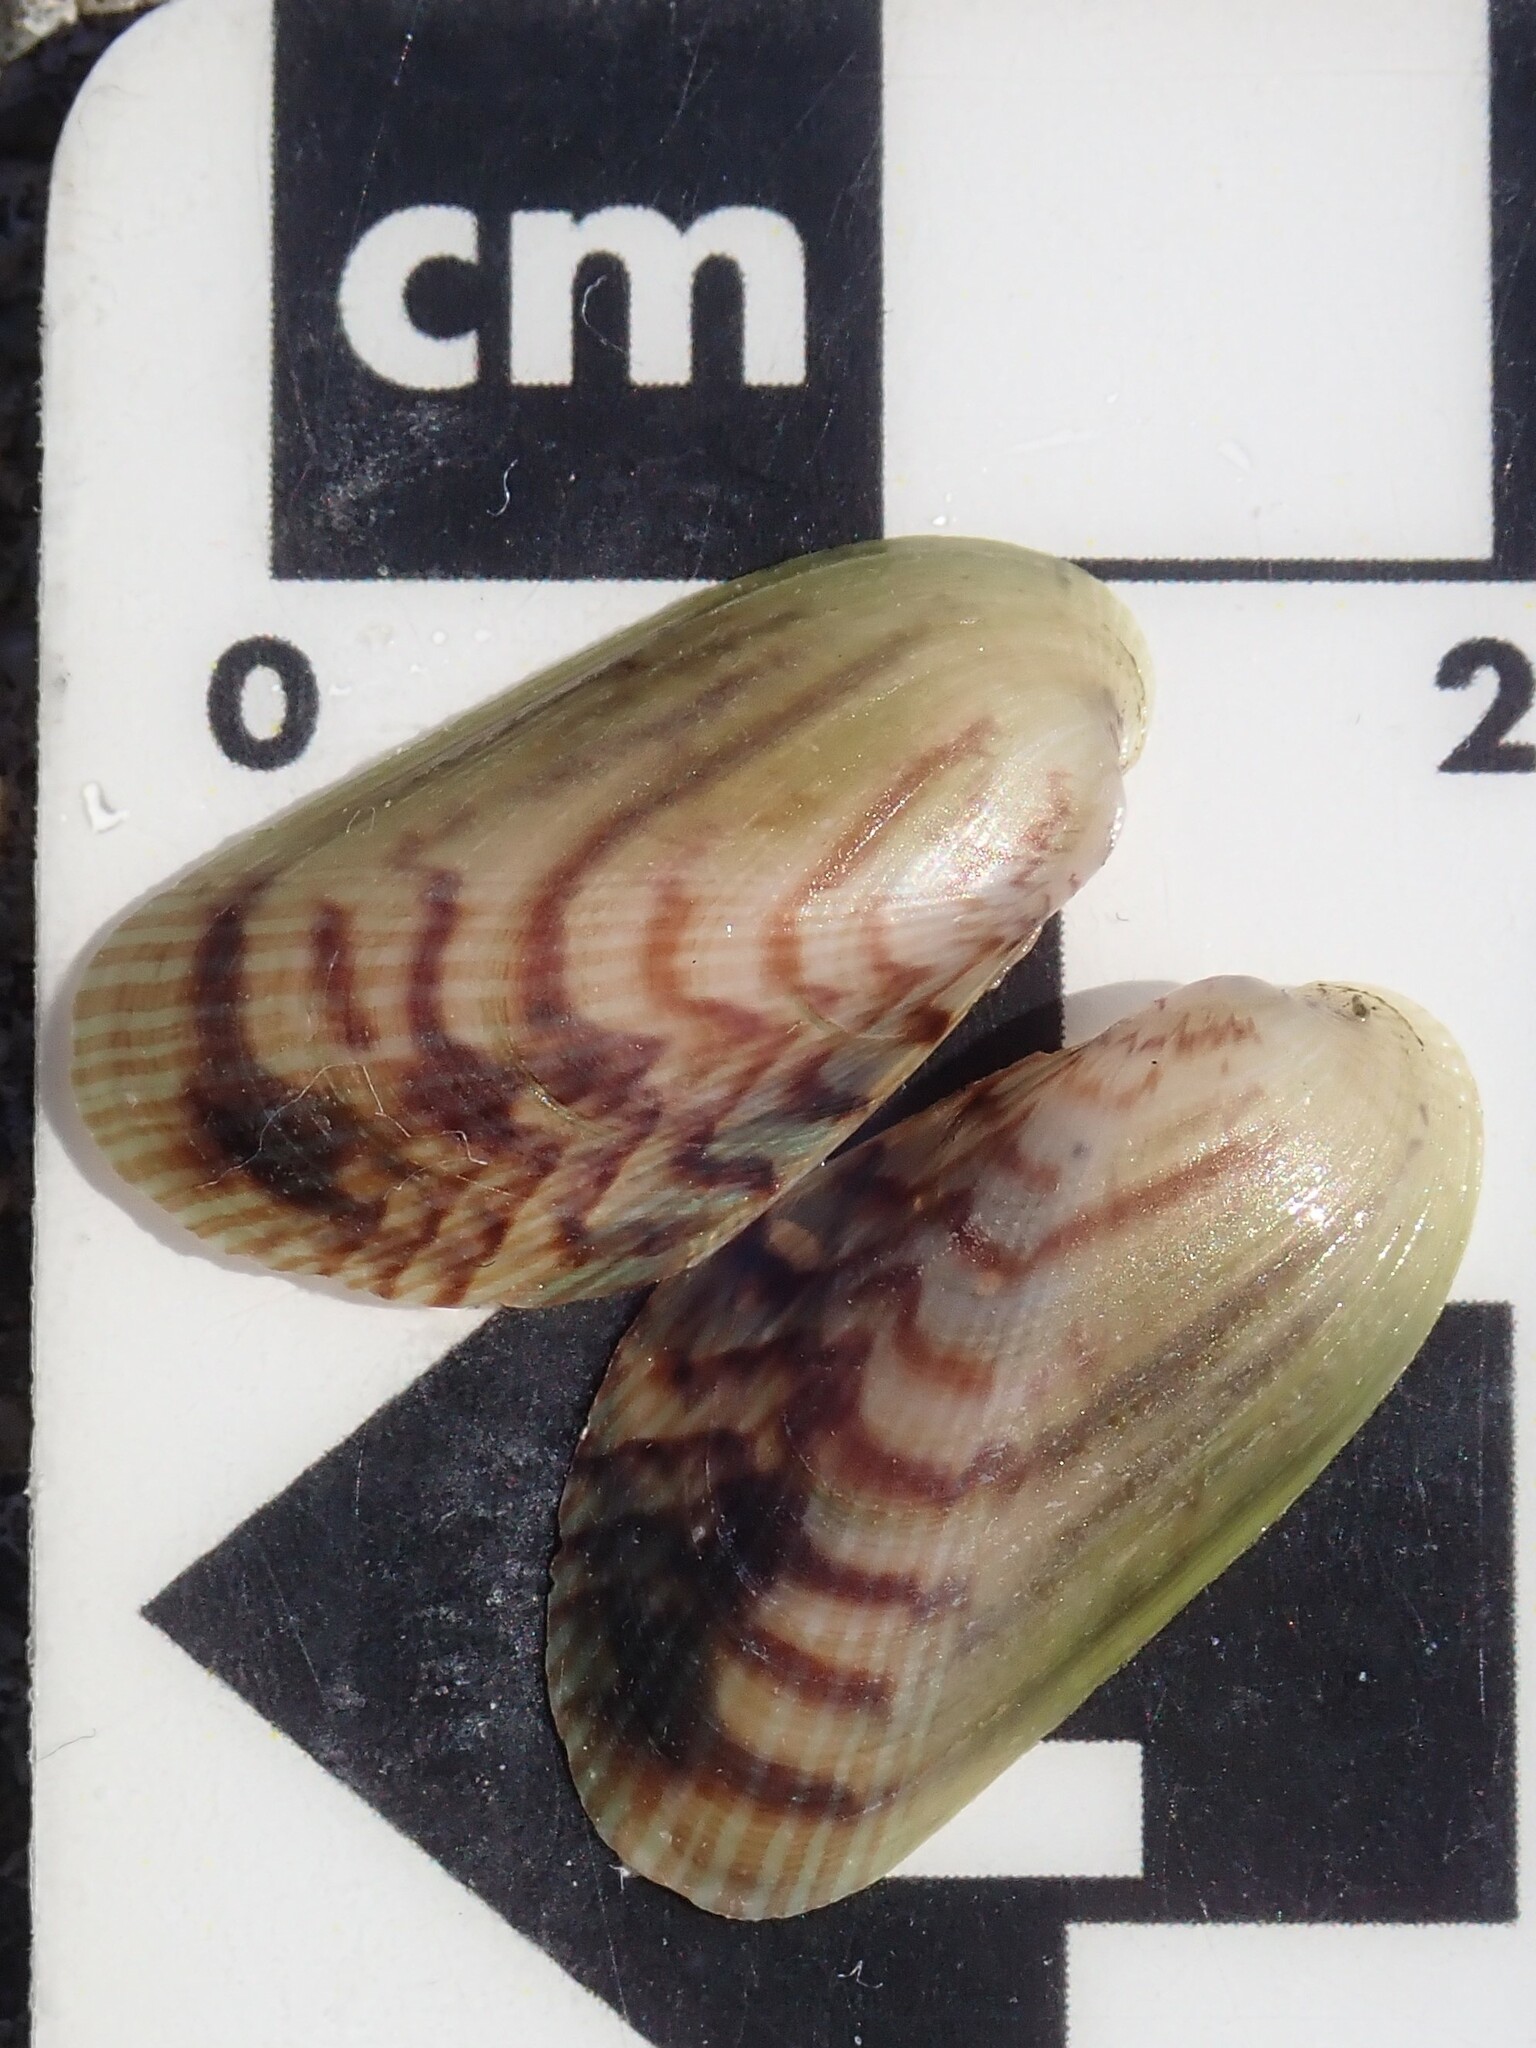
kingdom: Animalia
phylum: Mollusca
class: Bivalvia
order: Mytilida
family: Mytilidae
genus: Arcuatula
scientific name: Arcuatula senhousia
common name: Asian mussel
